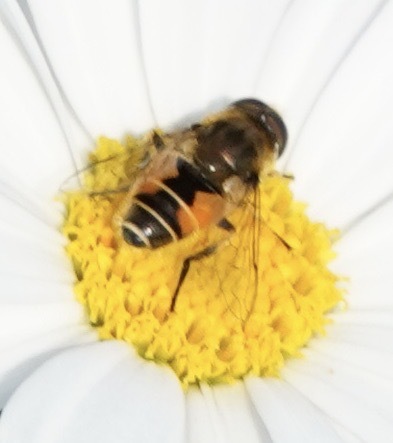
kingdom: Animalia
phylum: Arthropoda
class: Insecta
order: Diptera
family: Syrphidae
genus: Eristalis
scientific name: Eristalis arbustorum
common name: Hover fly
